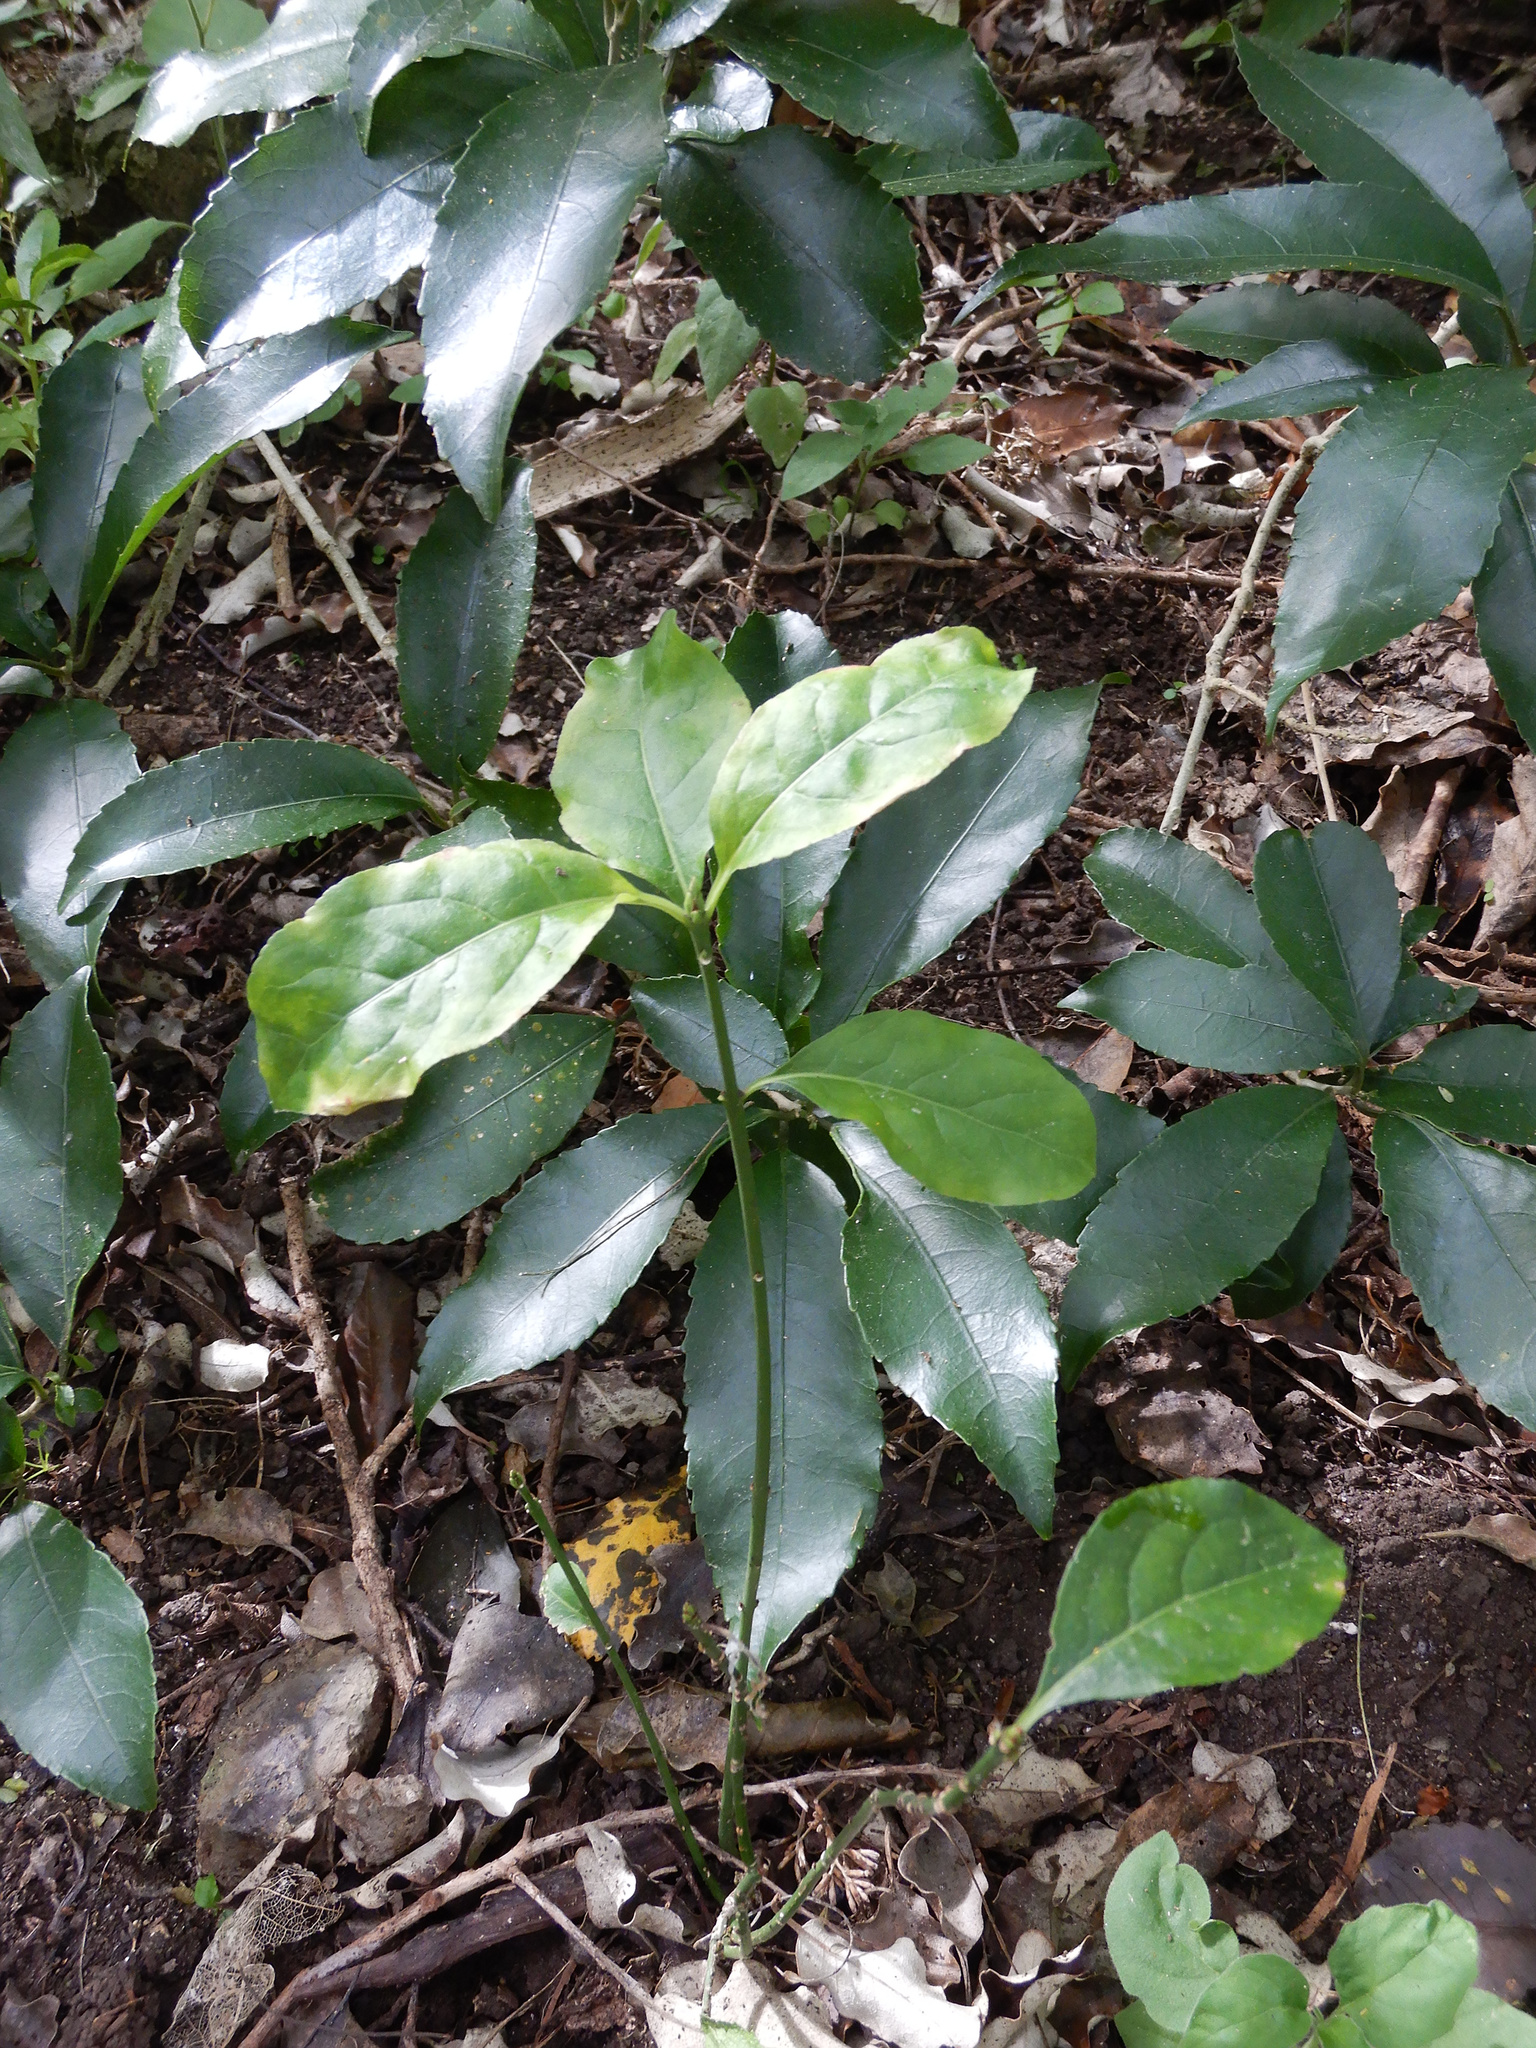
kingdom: Plantae
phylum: Tracheophyta
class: Magnoliopsida
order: Celastrales
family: Celastraceae
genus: Euonymus
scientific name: Euonymus europaeus
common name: Spindle
